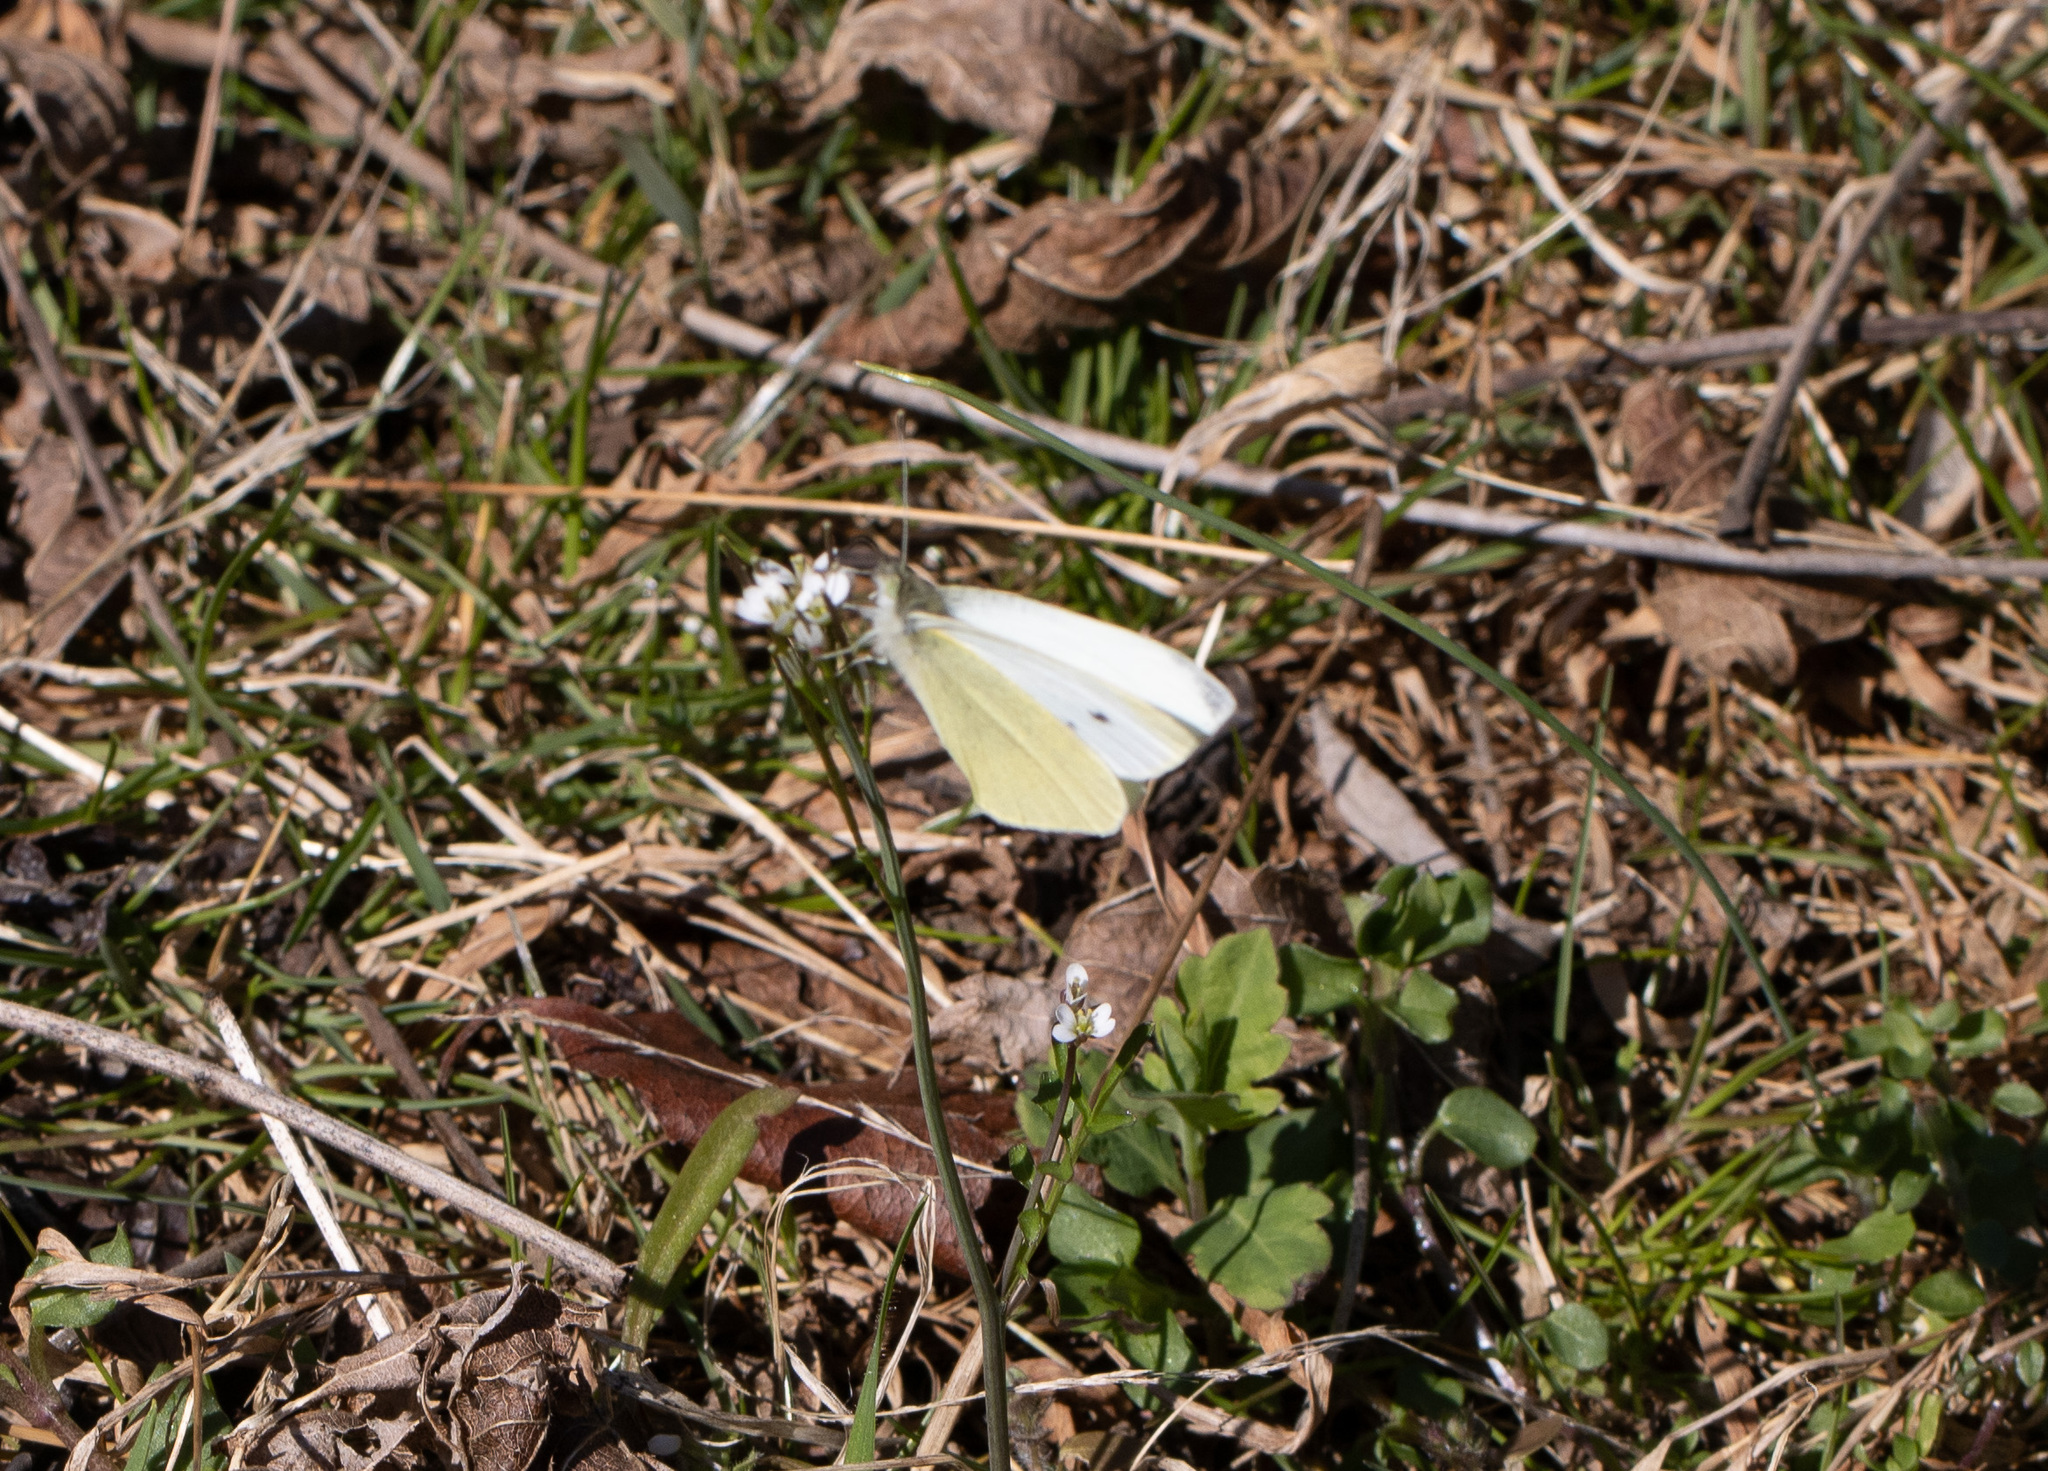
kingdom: Animalia
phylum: Arthropoda
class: Insecta
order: Lepidoptera
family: Pieridae
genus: Pieris
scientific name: Pieris rapae
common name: Small white
